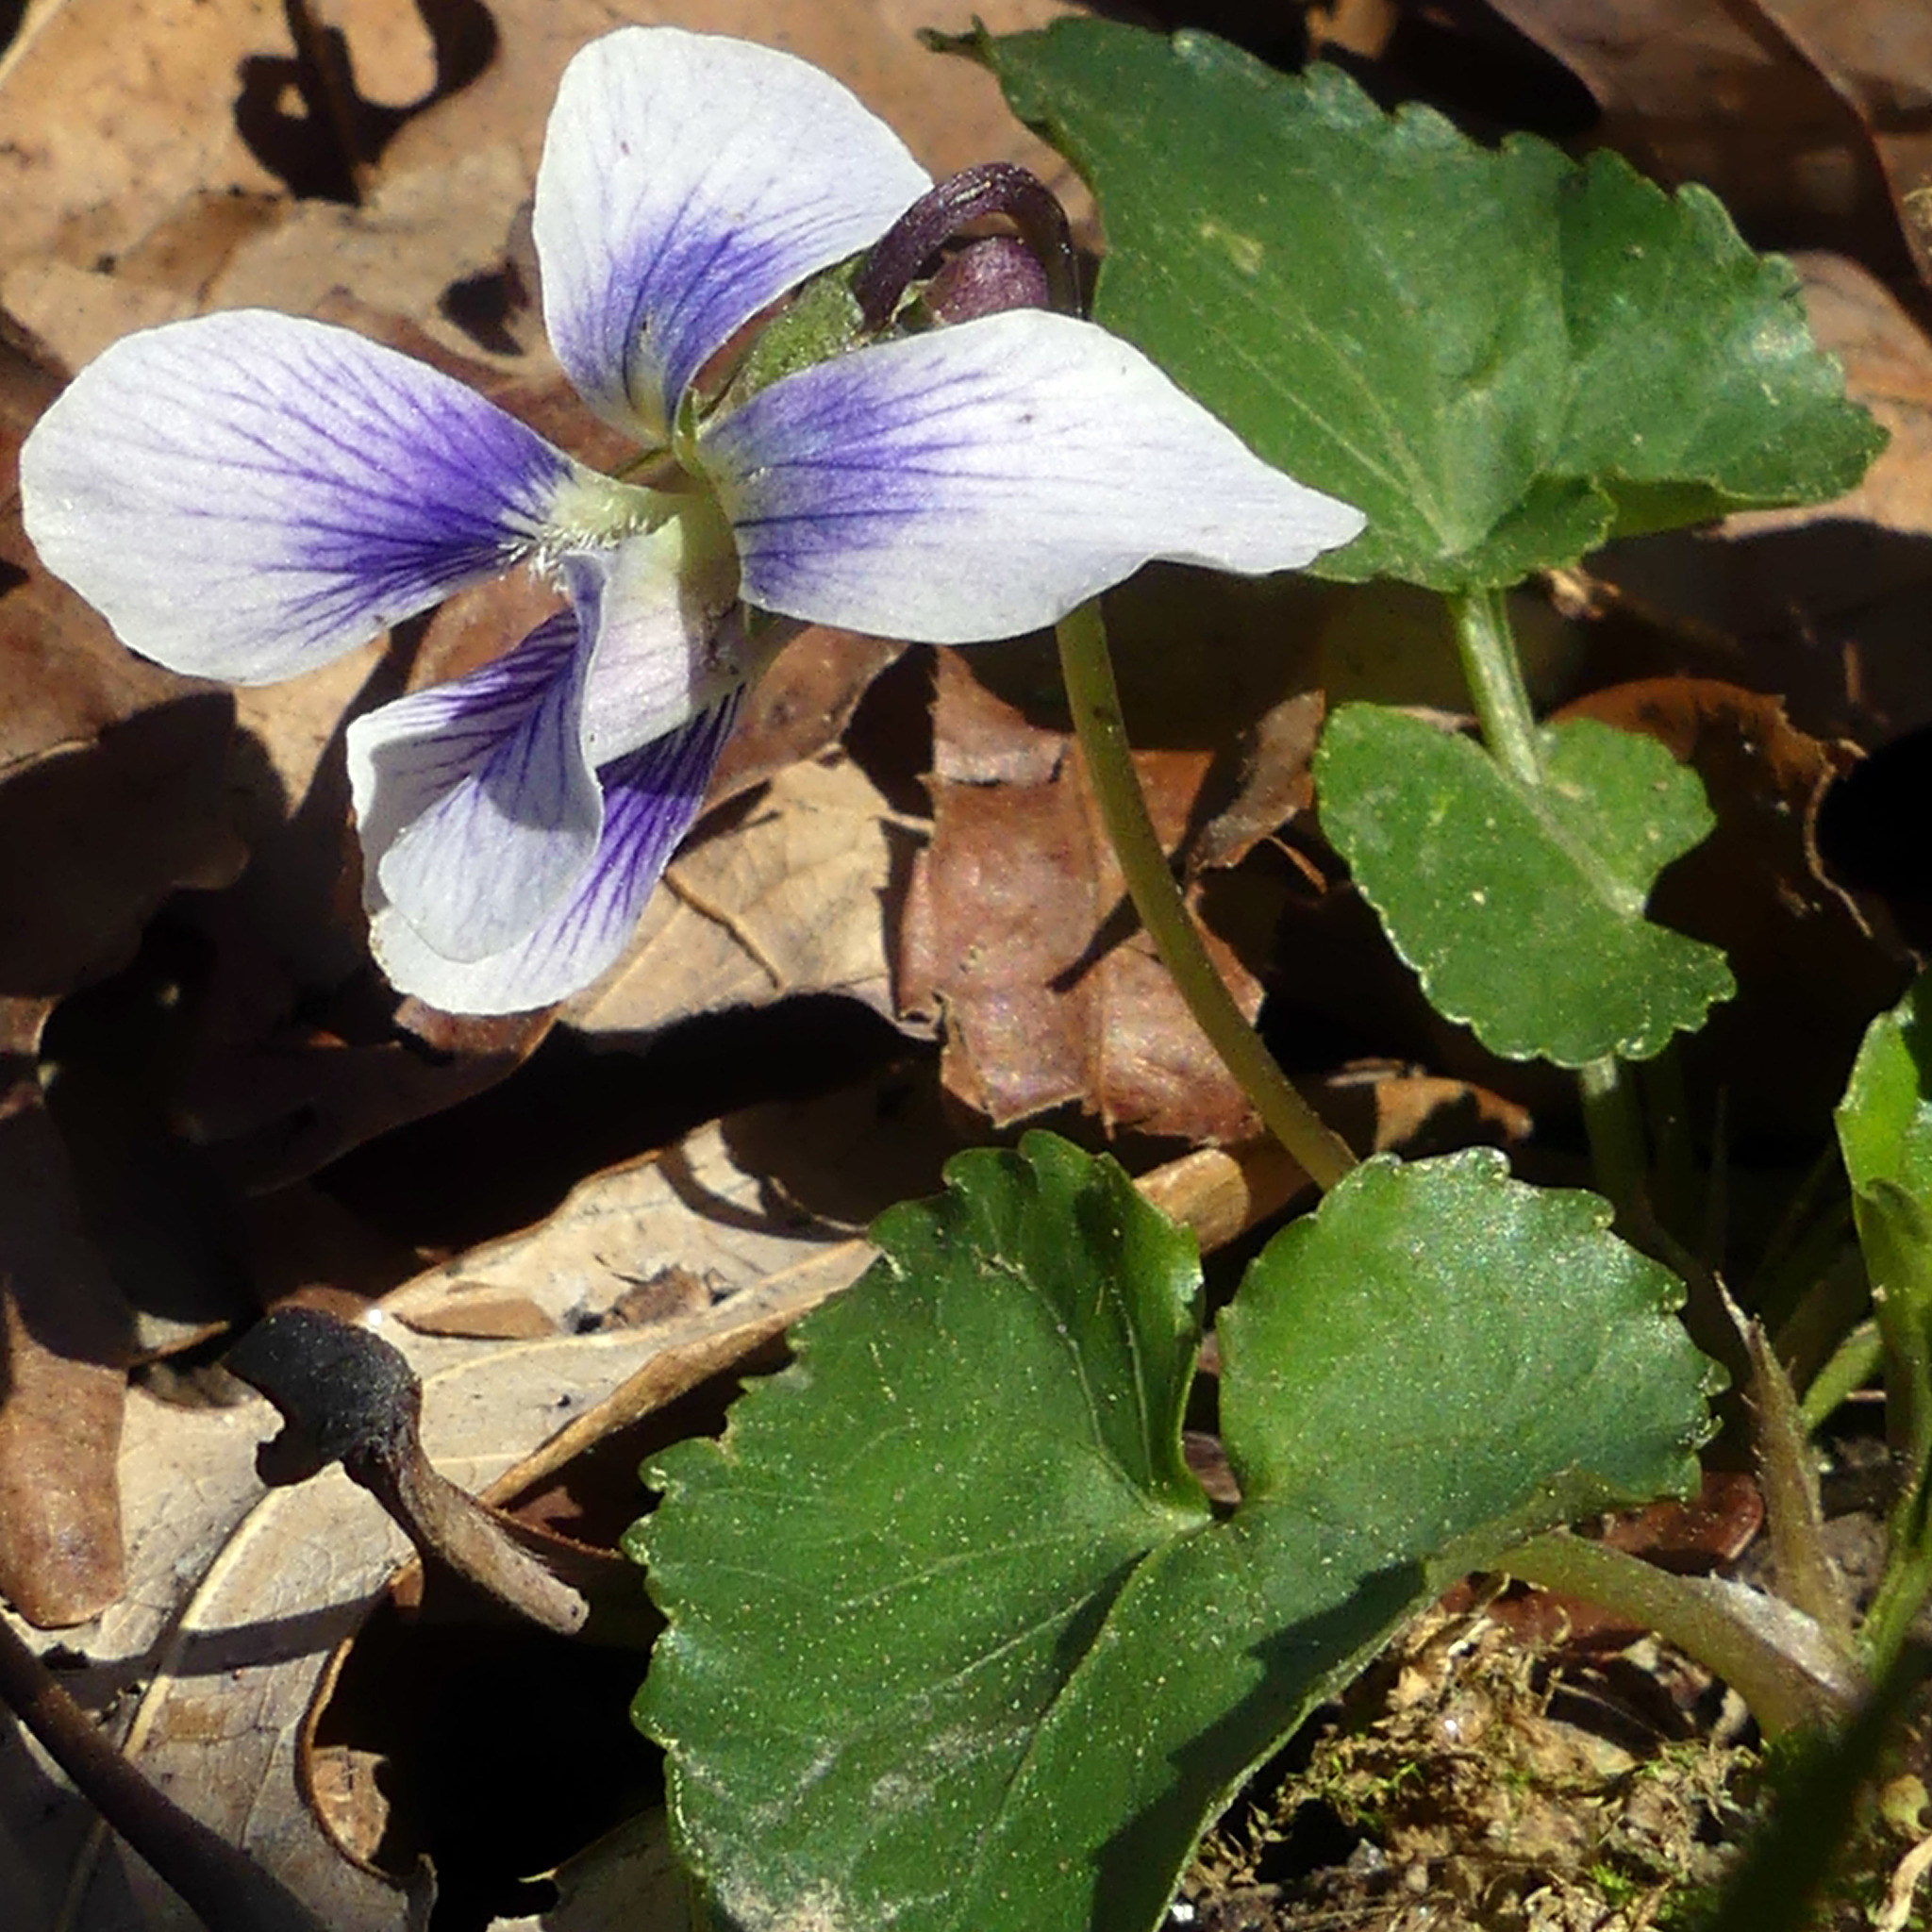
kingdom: Plantae
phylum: Tracheophyta
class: Magnoliopsida
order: Malpighiales
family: Violaceae
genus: Viola
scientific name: Viola sororia
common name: Dooryard violet
